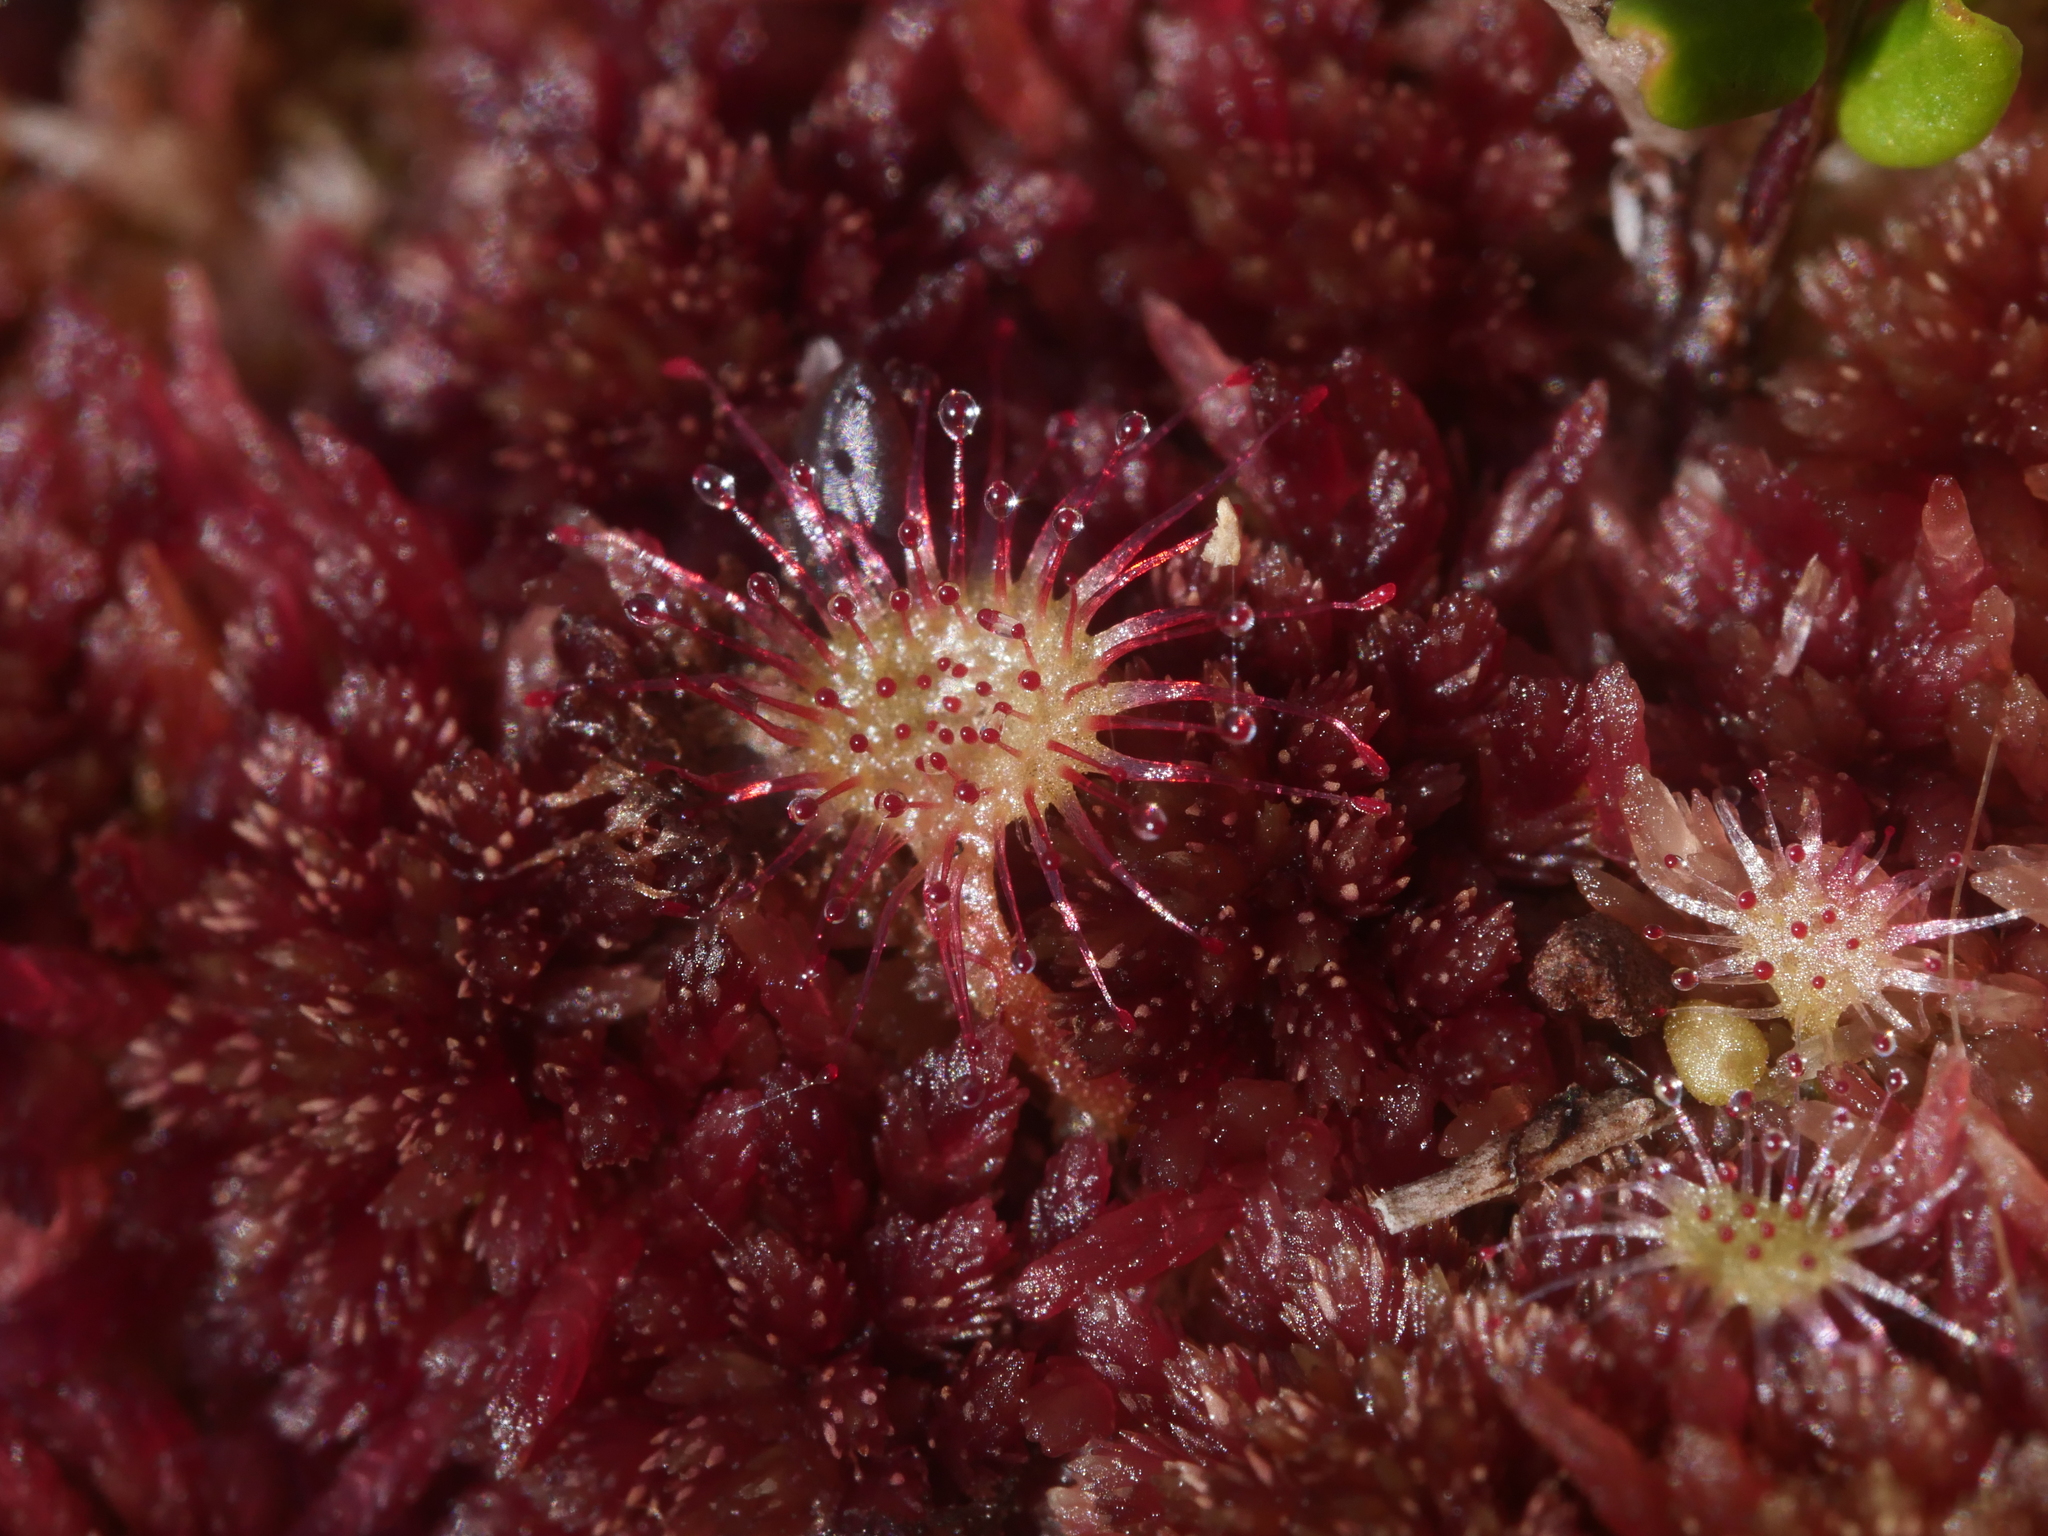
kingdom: Plantae
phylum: Tracheophyta
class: Magnoliopsida
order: Caryophyllales
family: Droseraceae
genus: Drosera
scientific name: Drosera rotundifolia
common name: Round-leaved sundew
